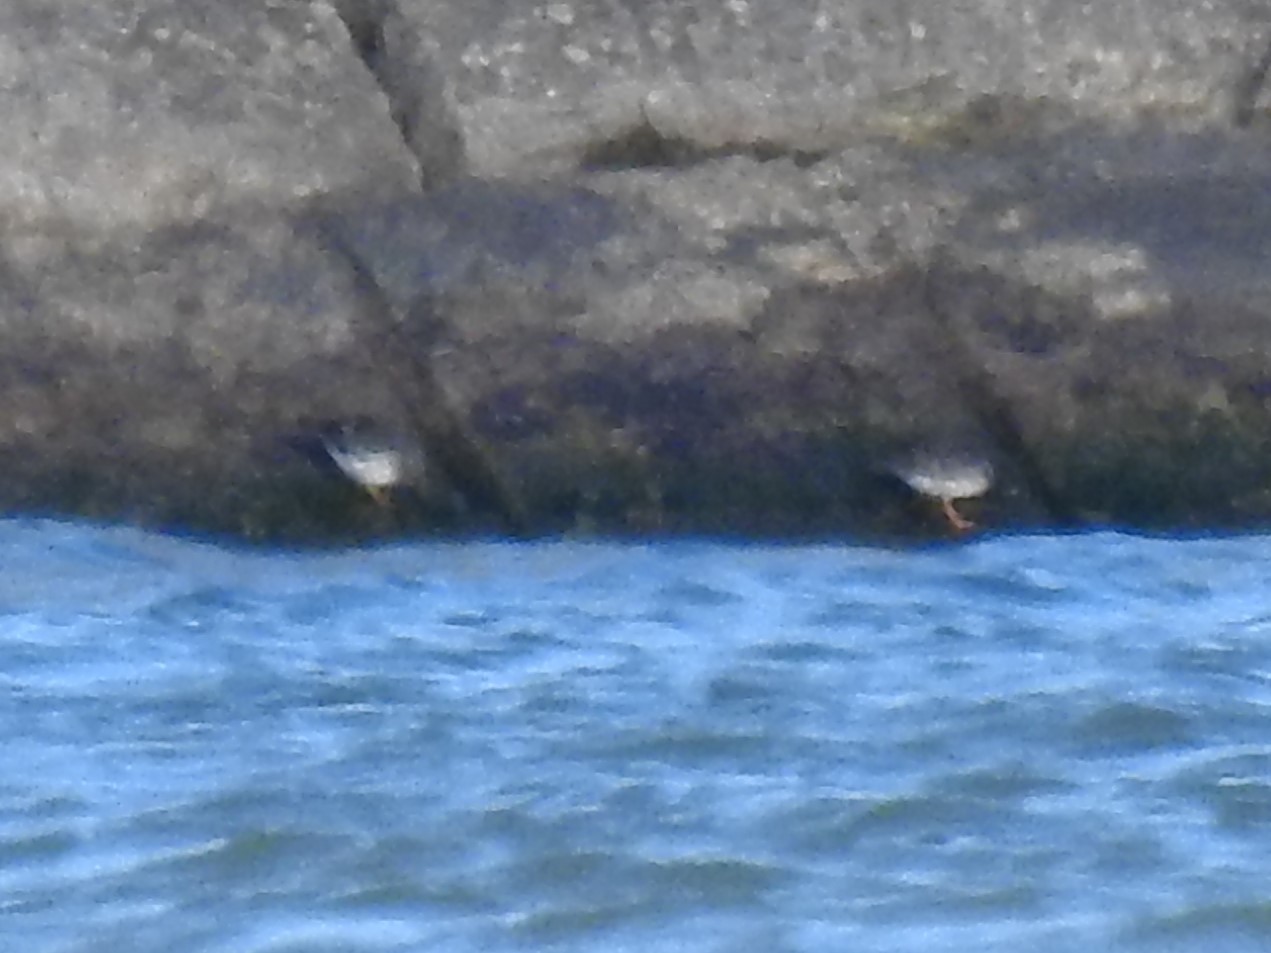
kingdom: Animalia
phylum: Chordata
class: Aves
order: Charadriiformes
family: Scolopacidae
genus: Calidris
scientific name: Calidris maritima
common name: Purple sandpiper
